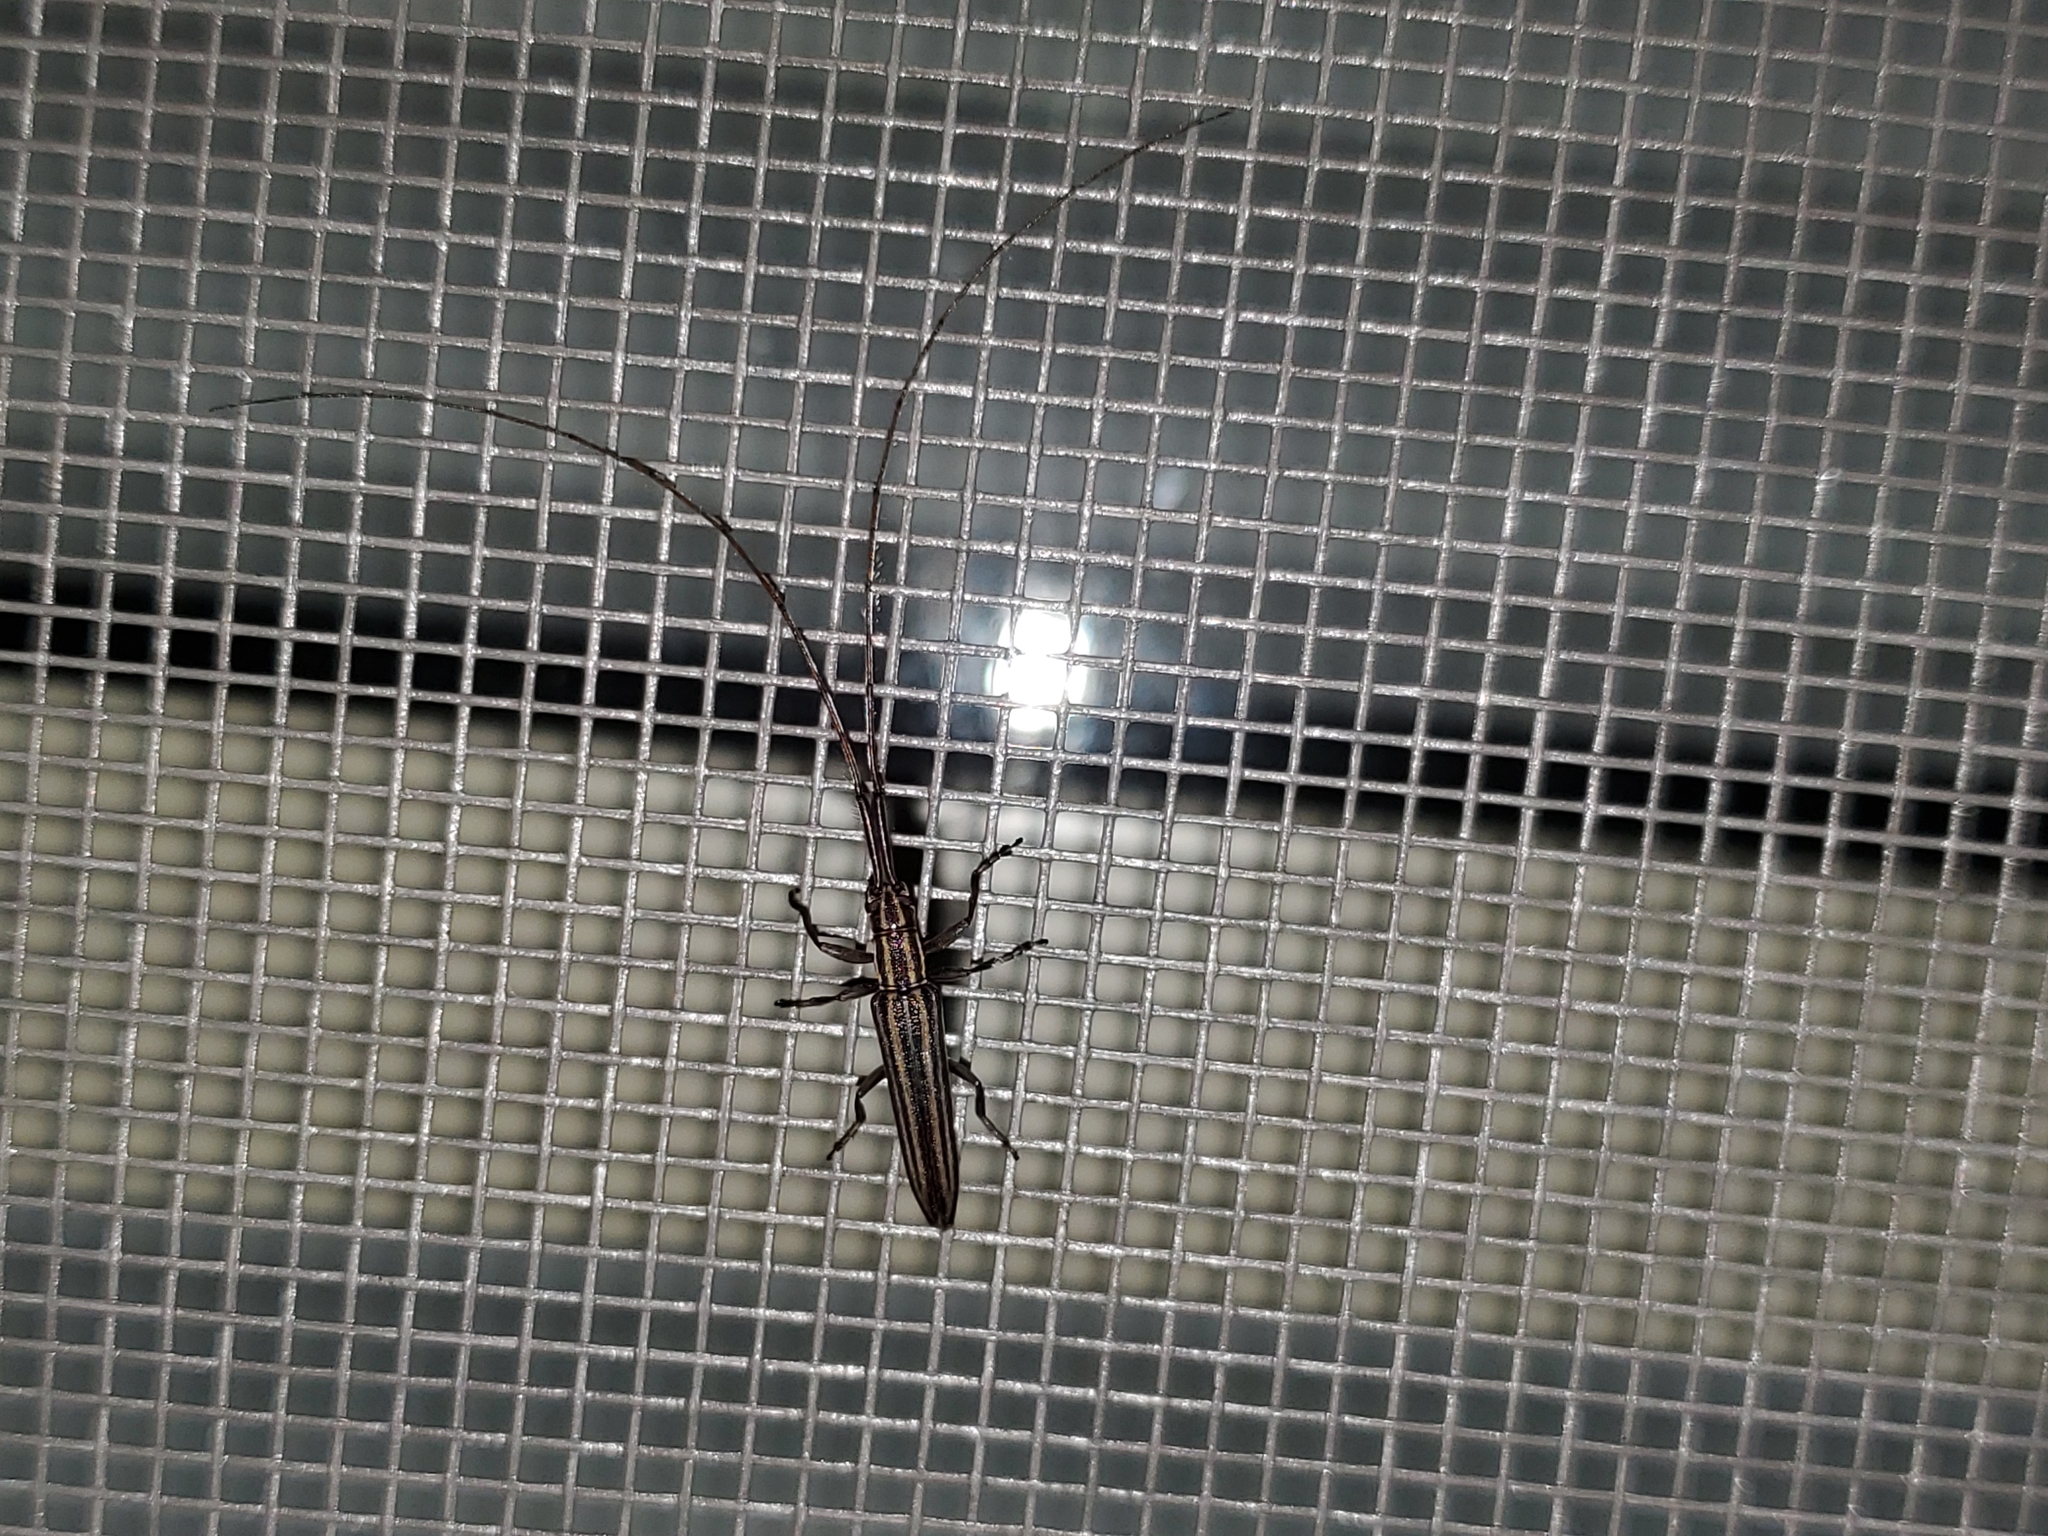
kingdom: Animalia
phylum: Arthropoda
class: Insecta
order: Coleoptera
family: Cerambycidae
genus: Hippopsis
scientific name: Hippopsis
